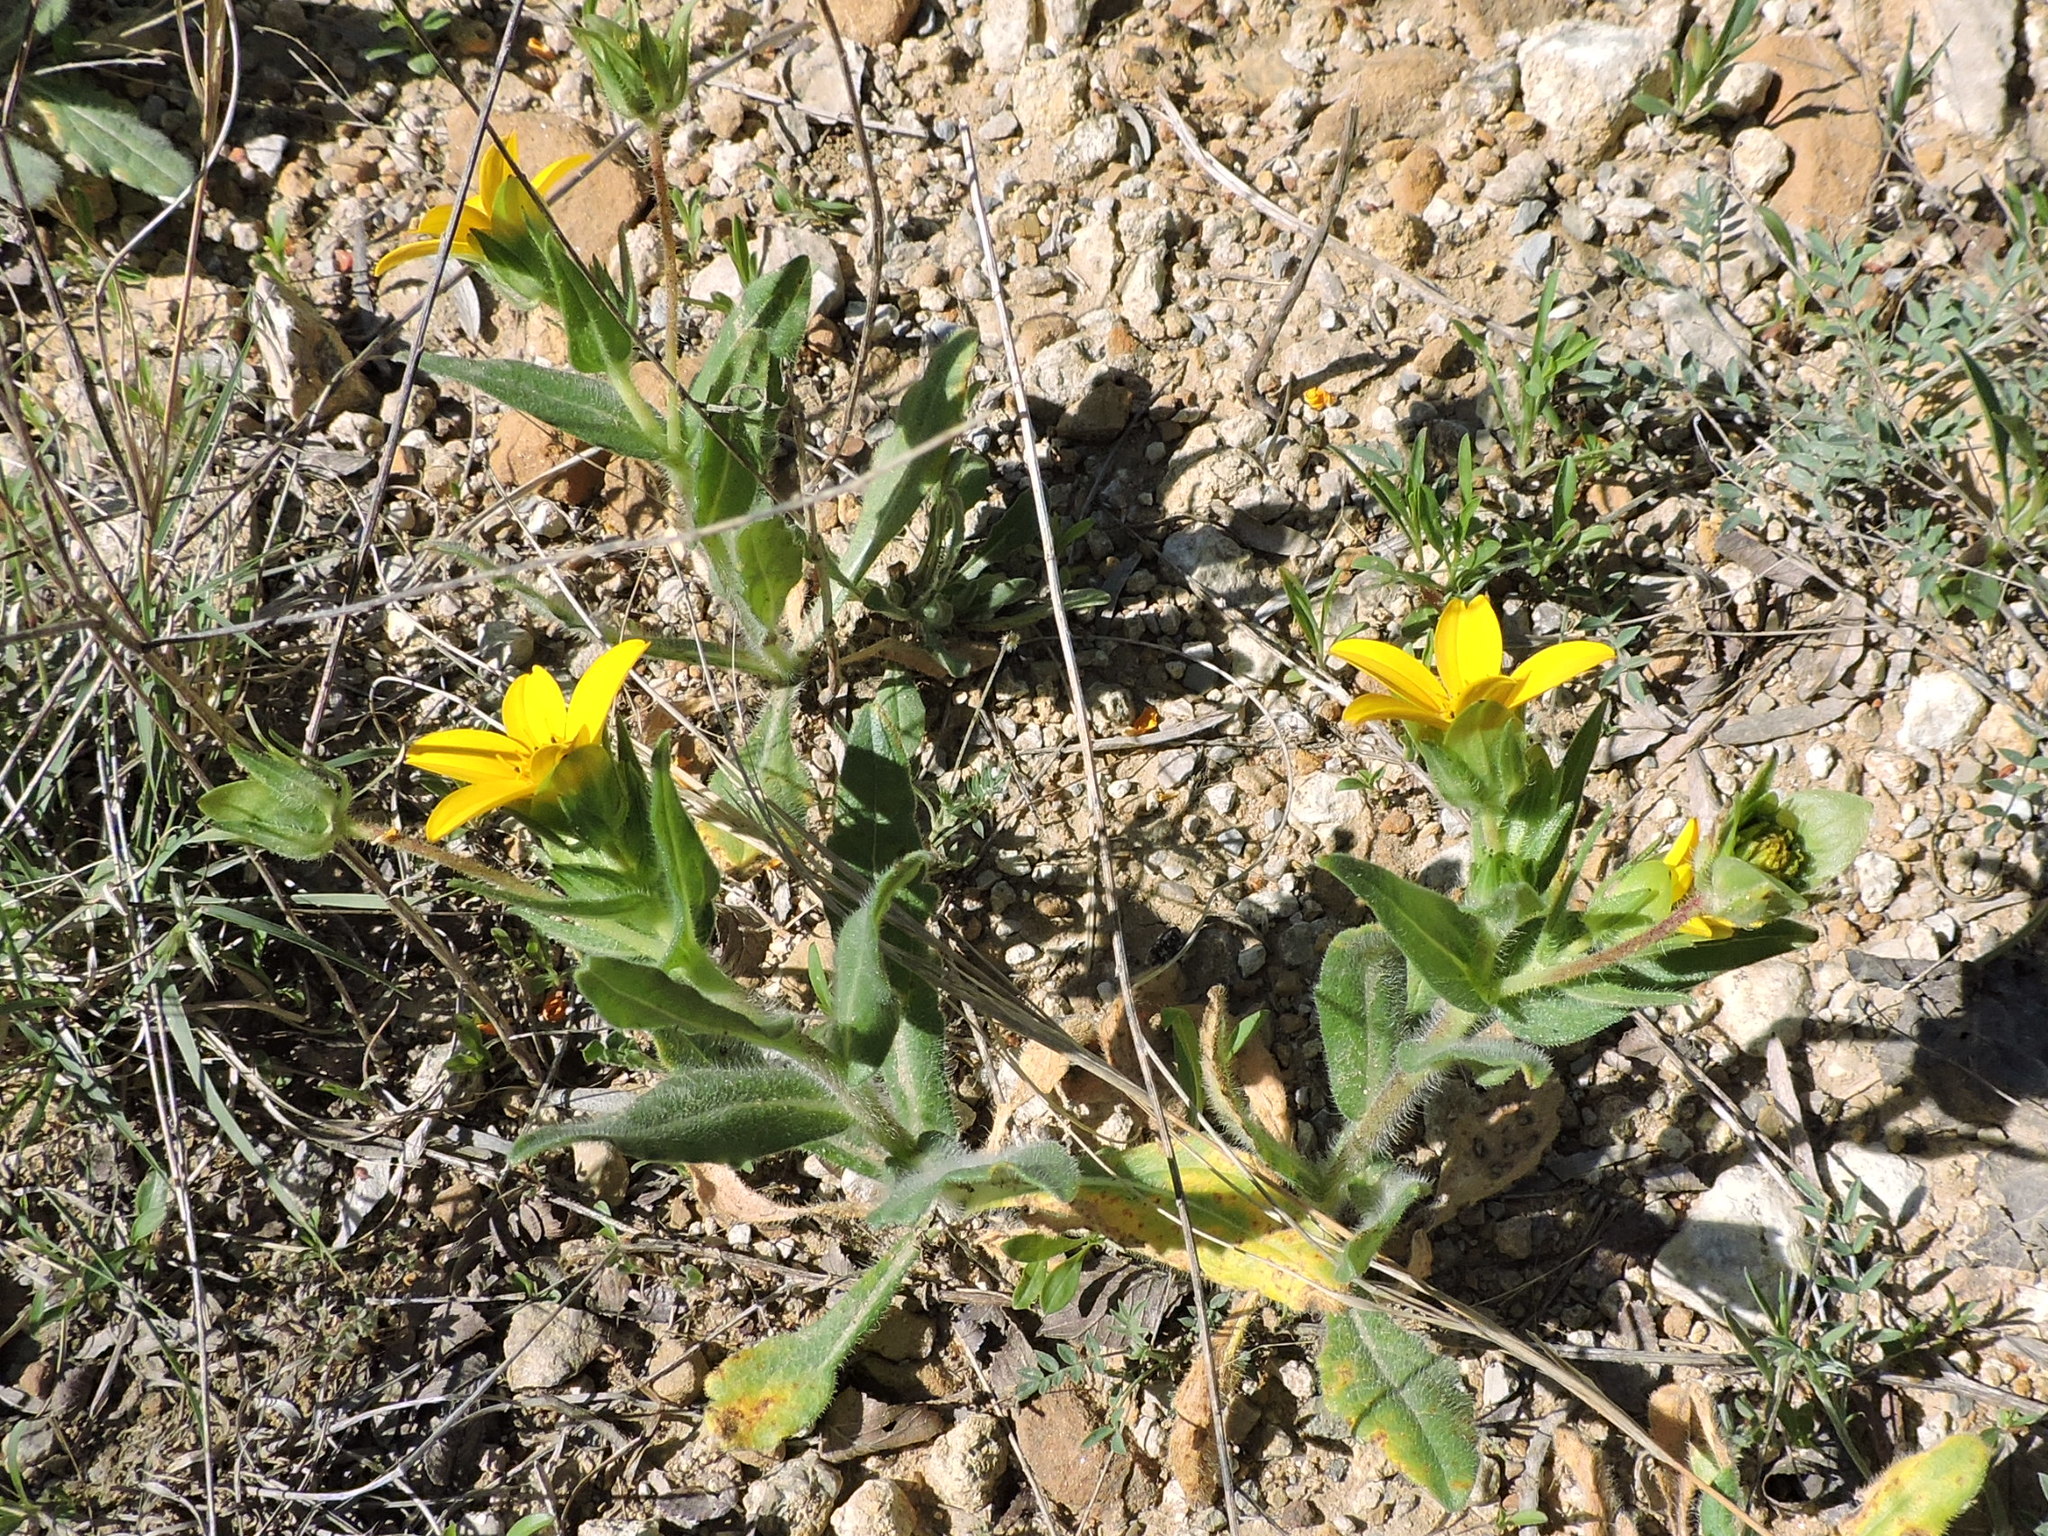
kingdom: Plantae
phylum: Tracheophyta
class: Magnoliopsida
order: Asterales
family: Asteraceae
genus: Lindheimera
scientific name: Lindheimera texana
